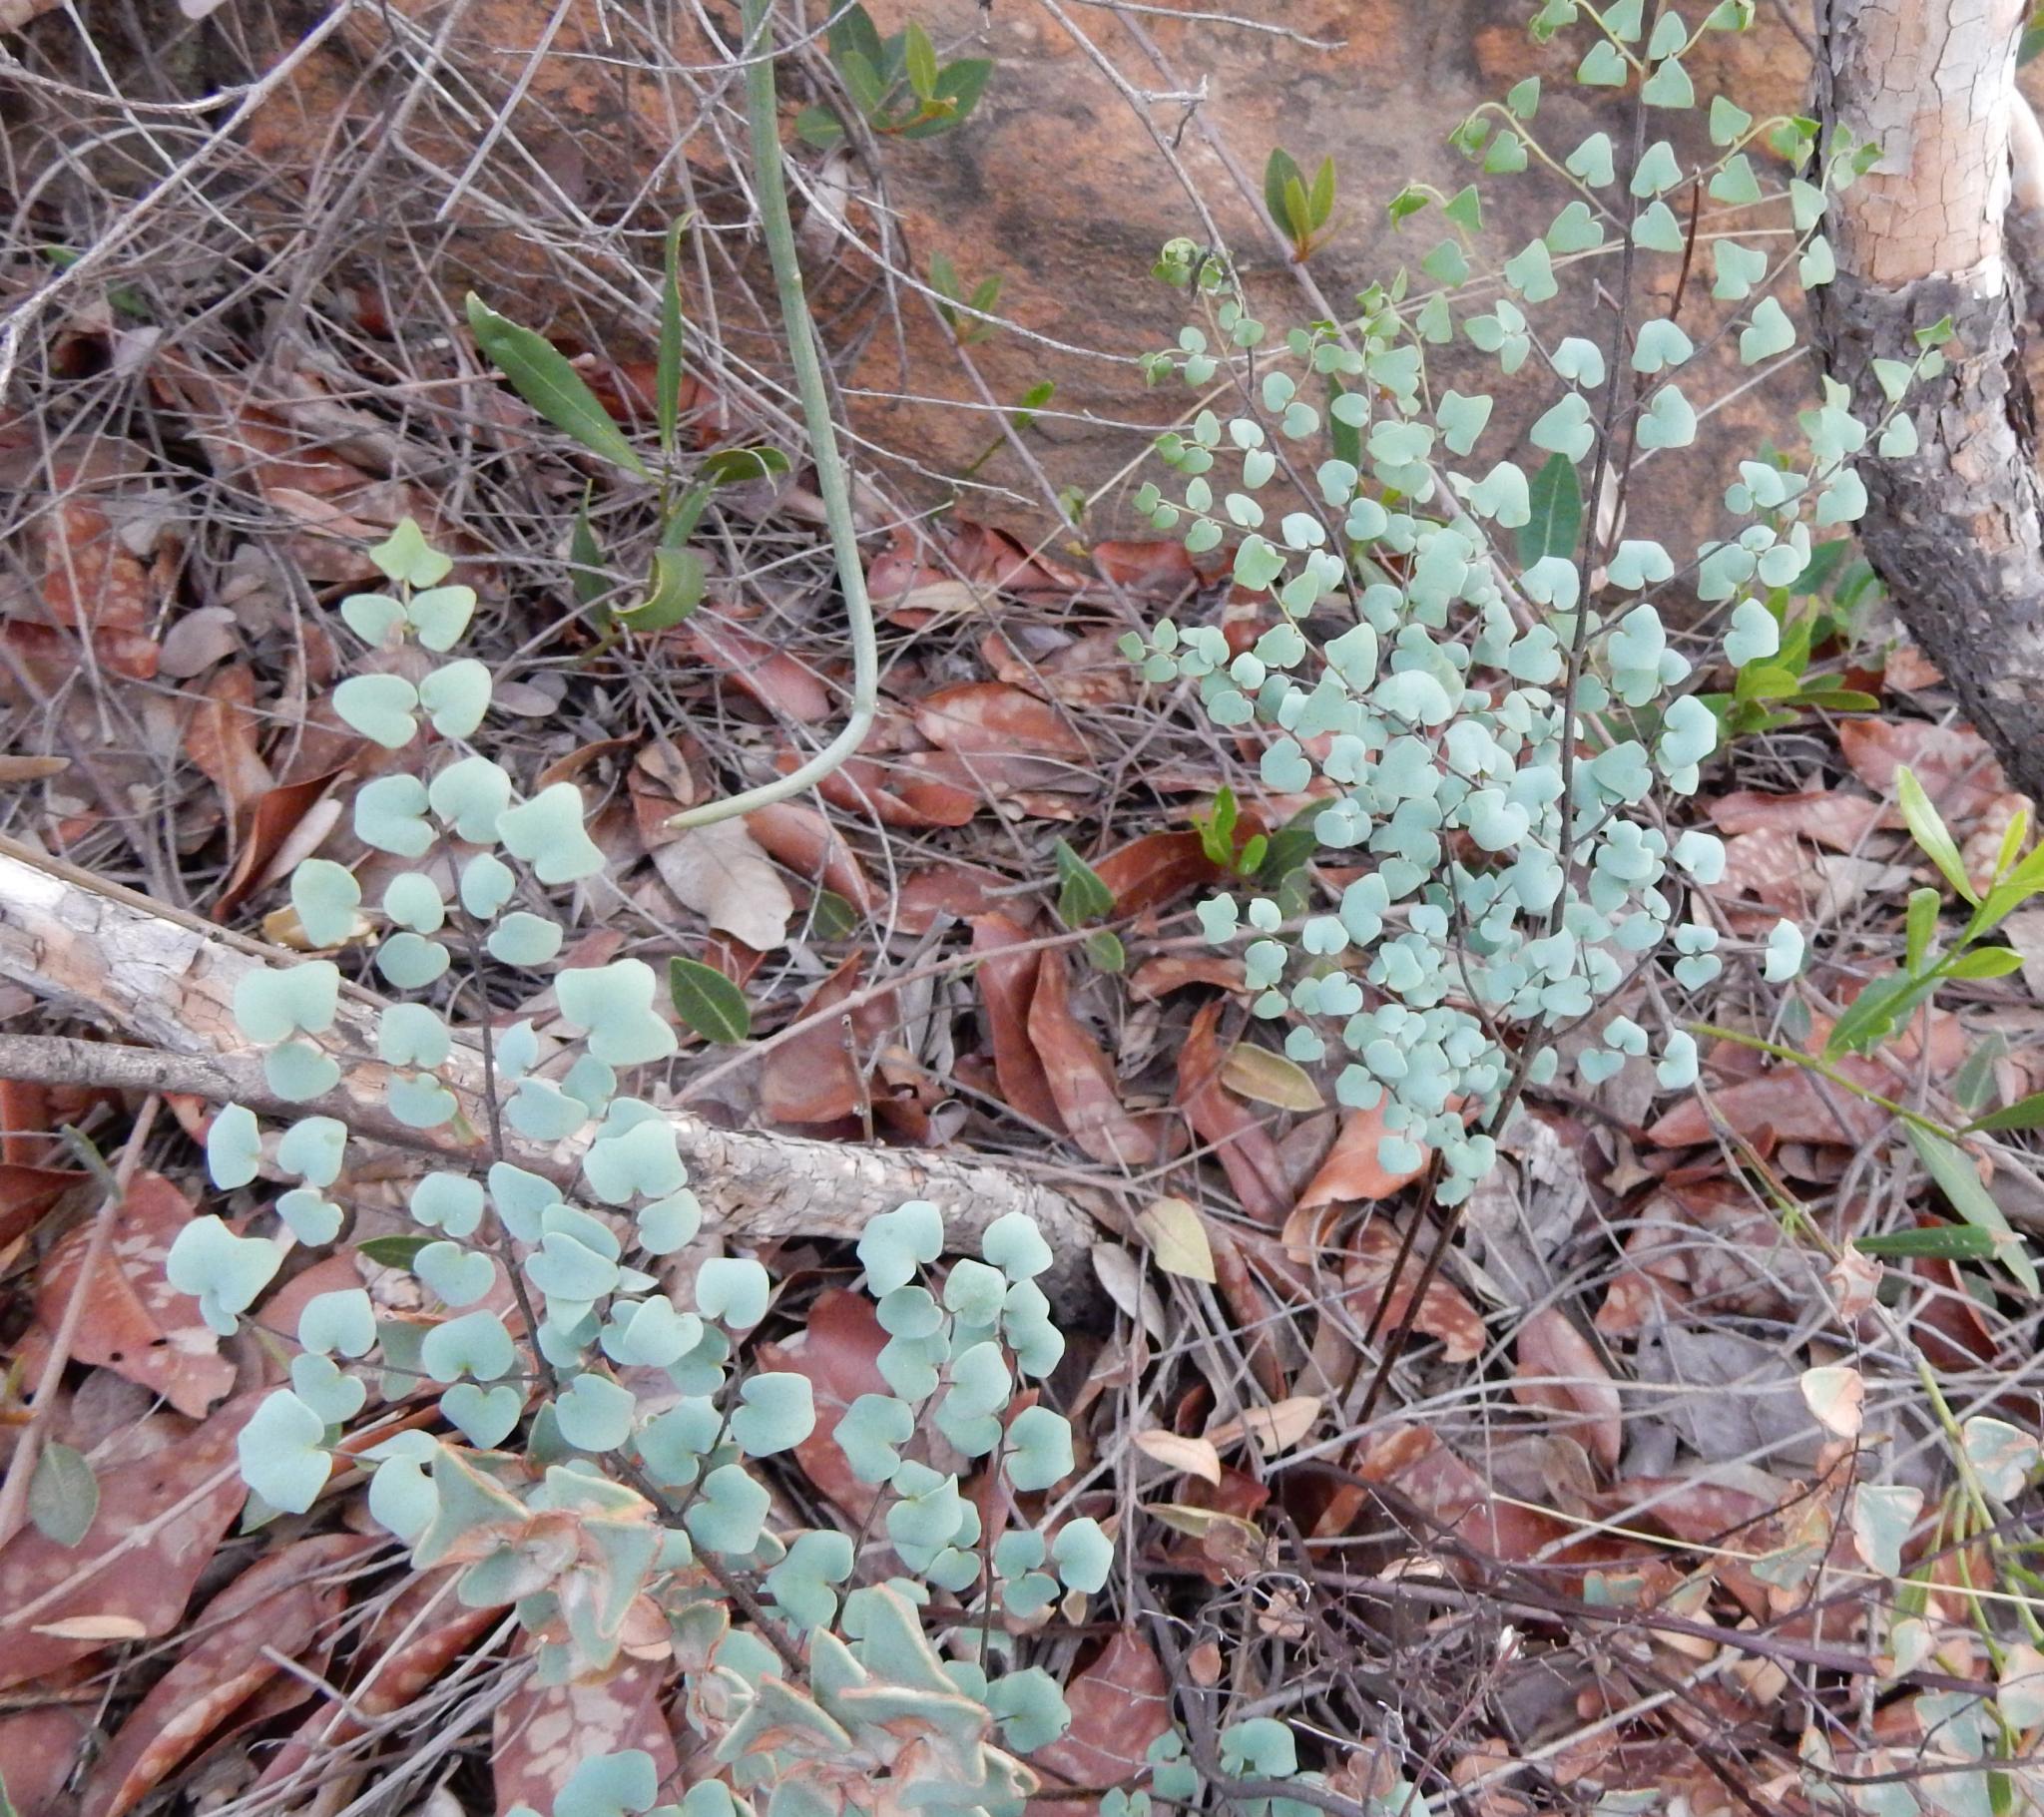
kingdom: Plantae
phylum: Tracheophyta
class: Polypodiopsida
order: Polypodiales
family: Pteridaceae
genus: Pellaea
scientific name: Pellaea calomelanos
